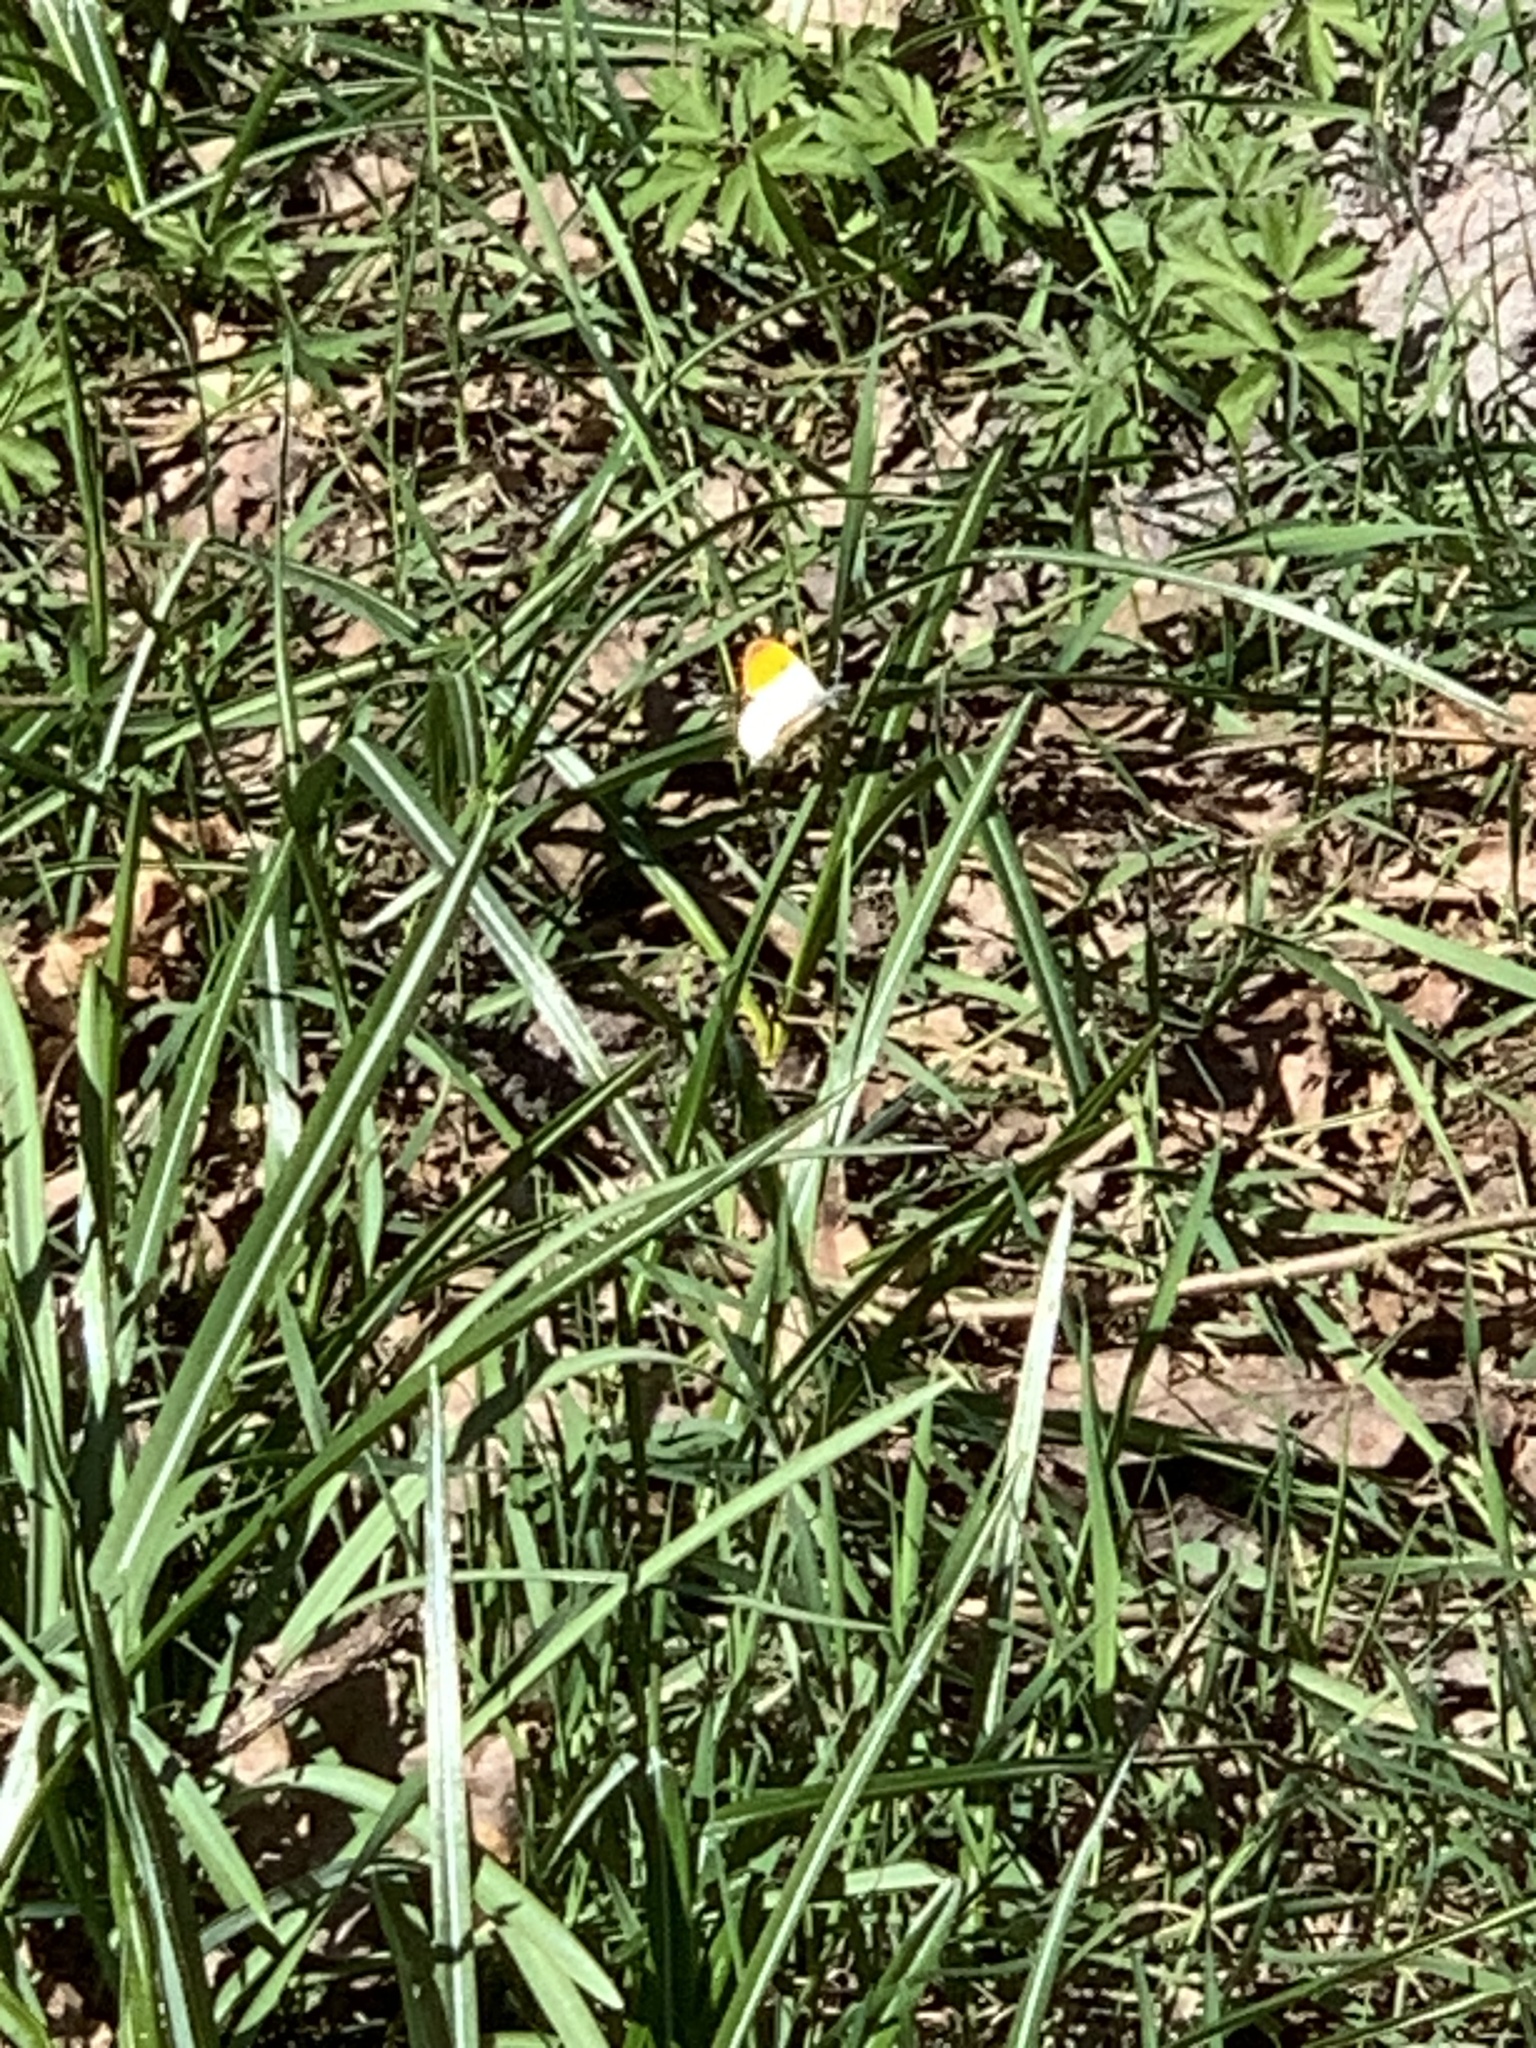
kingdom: Animalia
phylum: Arthropoda
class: Insecta
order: Lepidoptera
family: Pieridae
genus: Anthocharis
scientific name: Anthocharis cardamines
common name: Orange-tip
